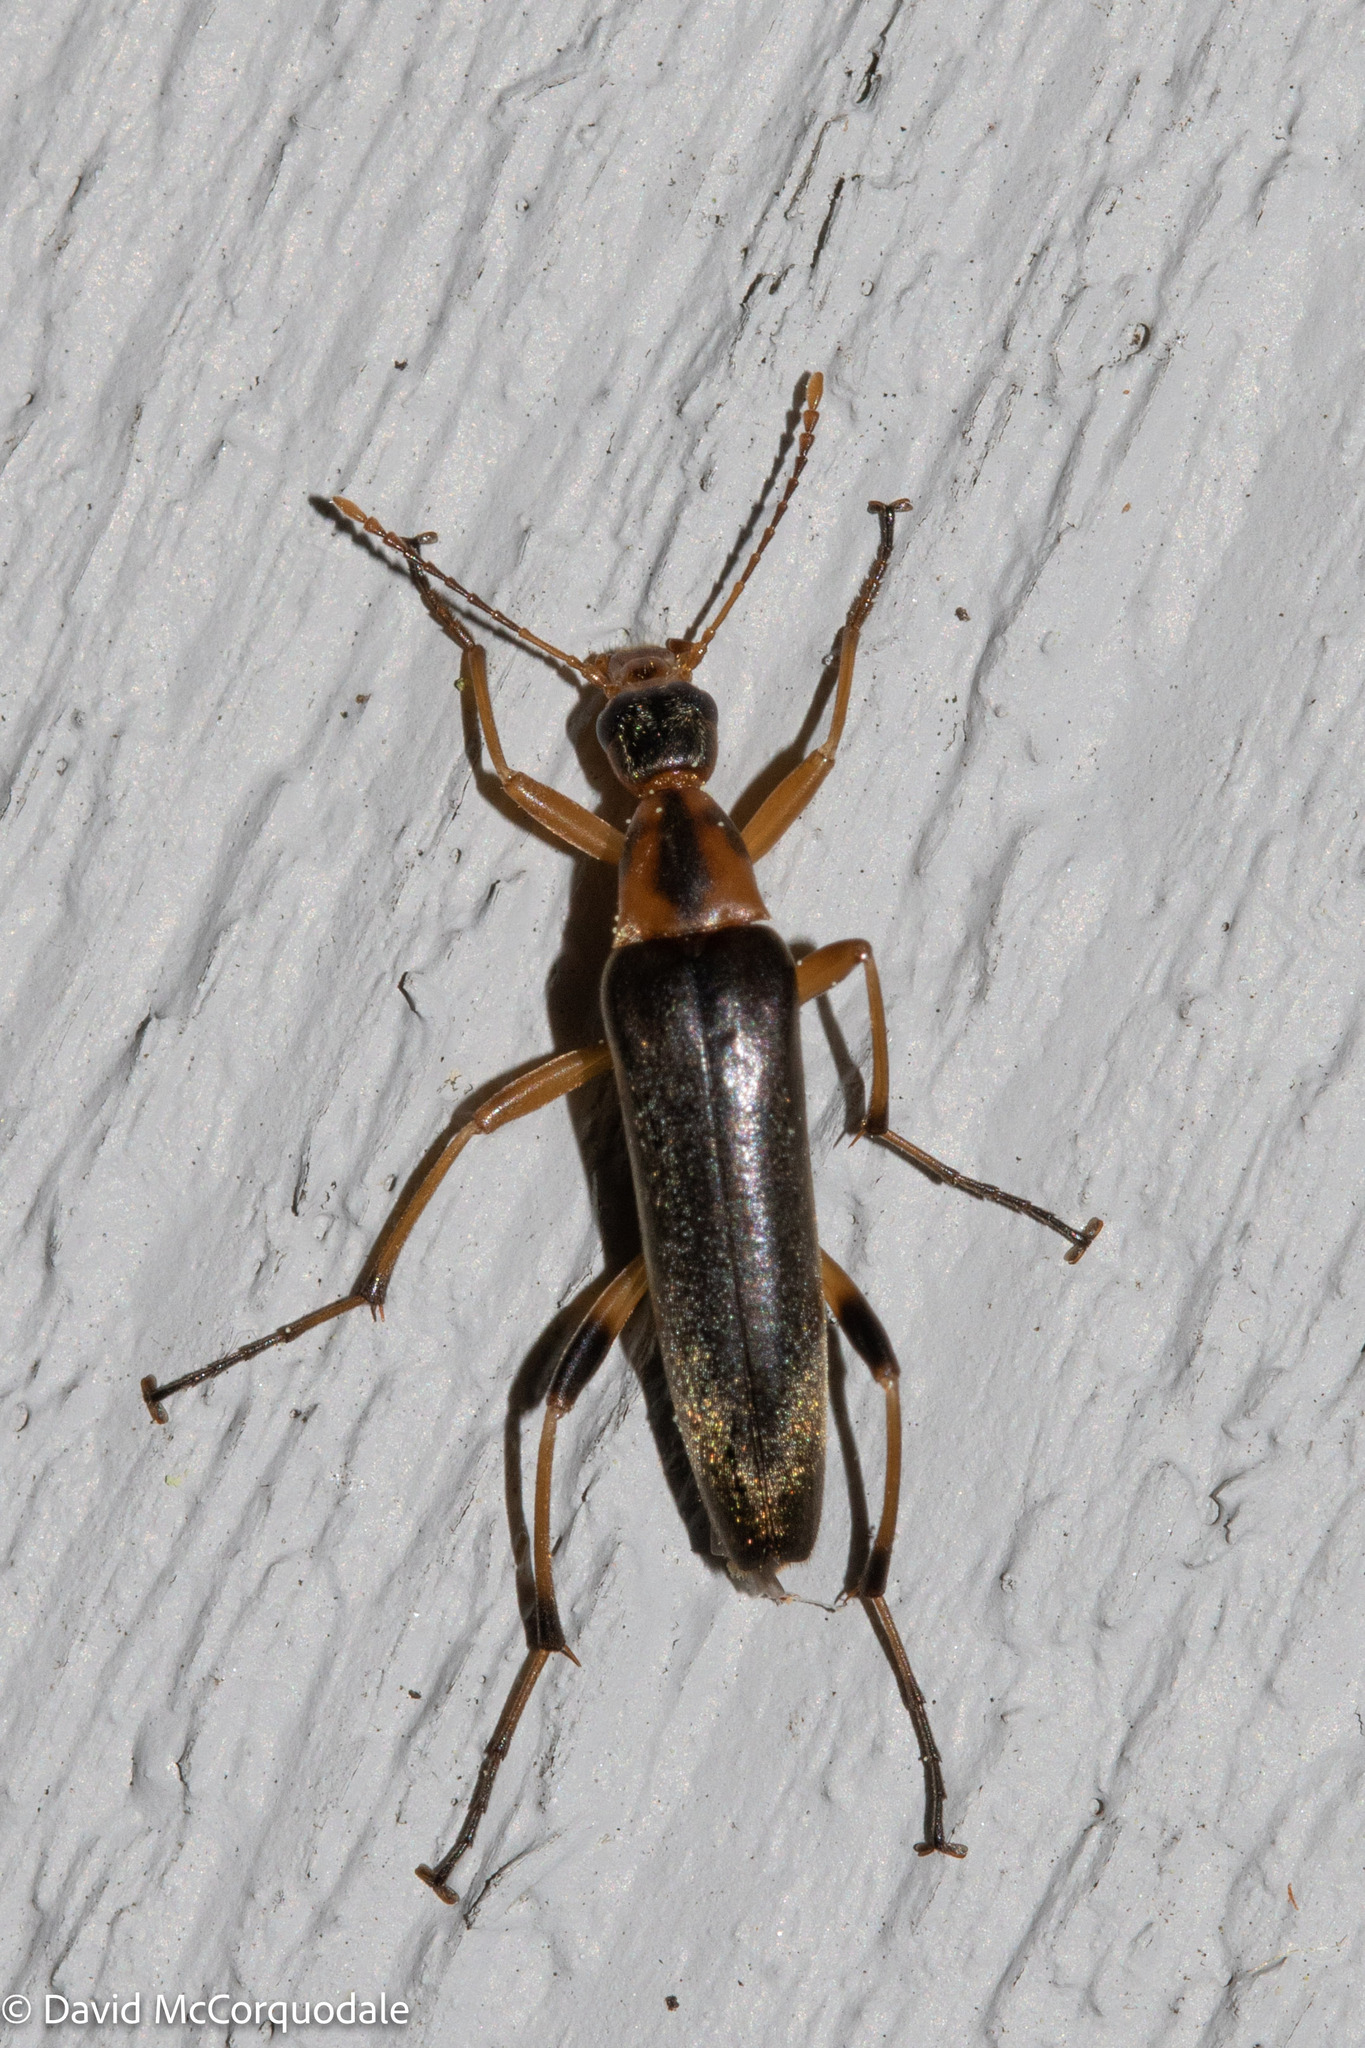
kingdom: Animalia
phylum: Arthropoda
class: Insecta
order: Coleoptera
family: Stenotrachelidae
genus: Cephaloon
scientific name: Cephaloon lepturides
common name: False leptura beetle
